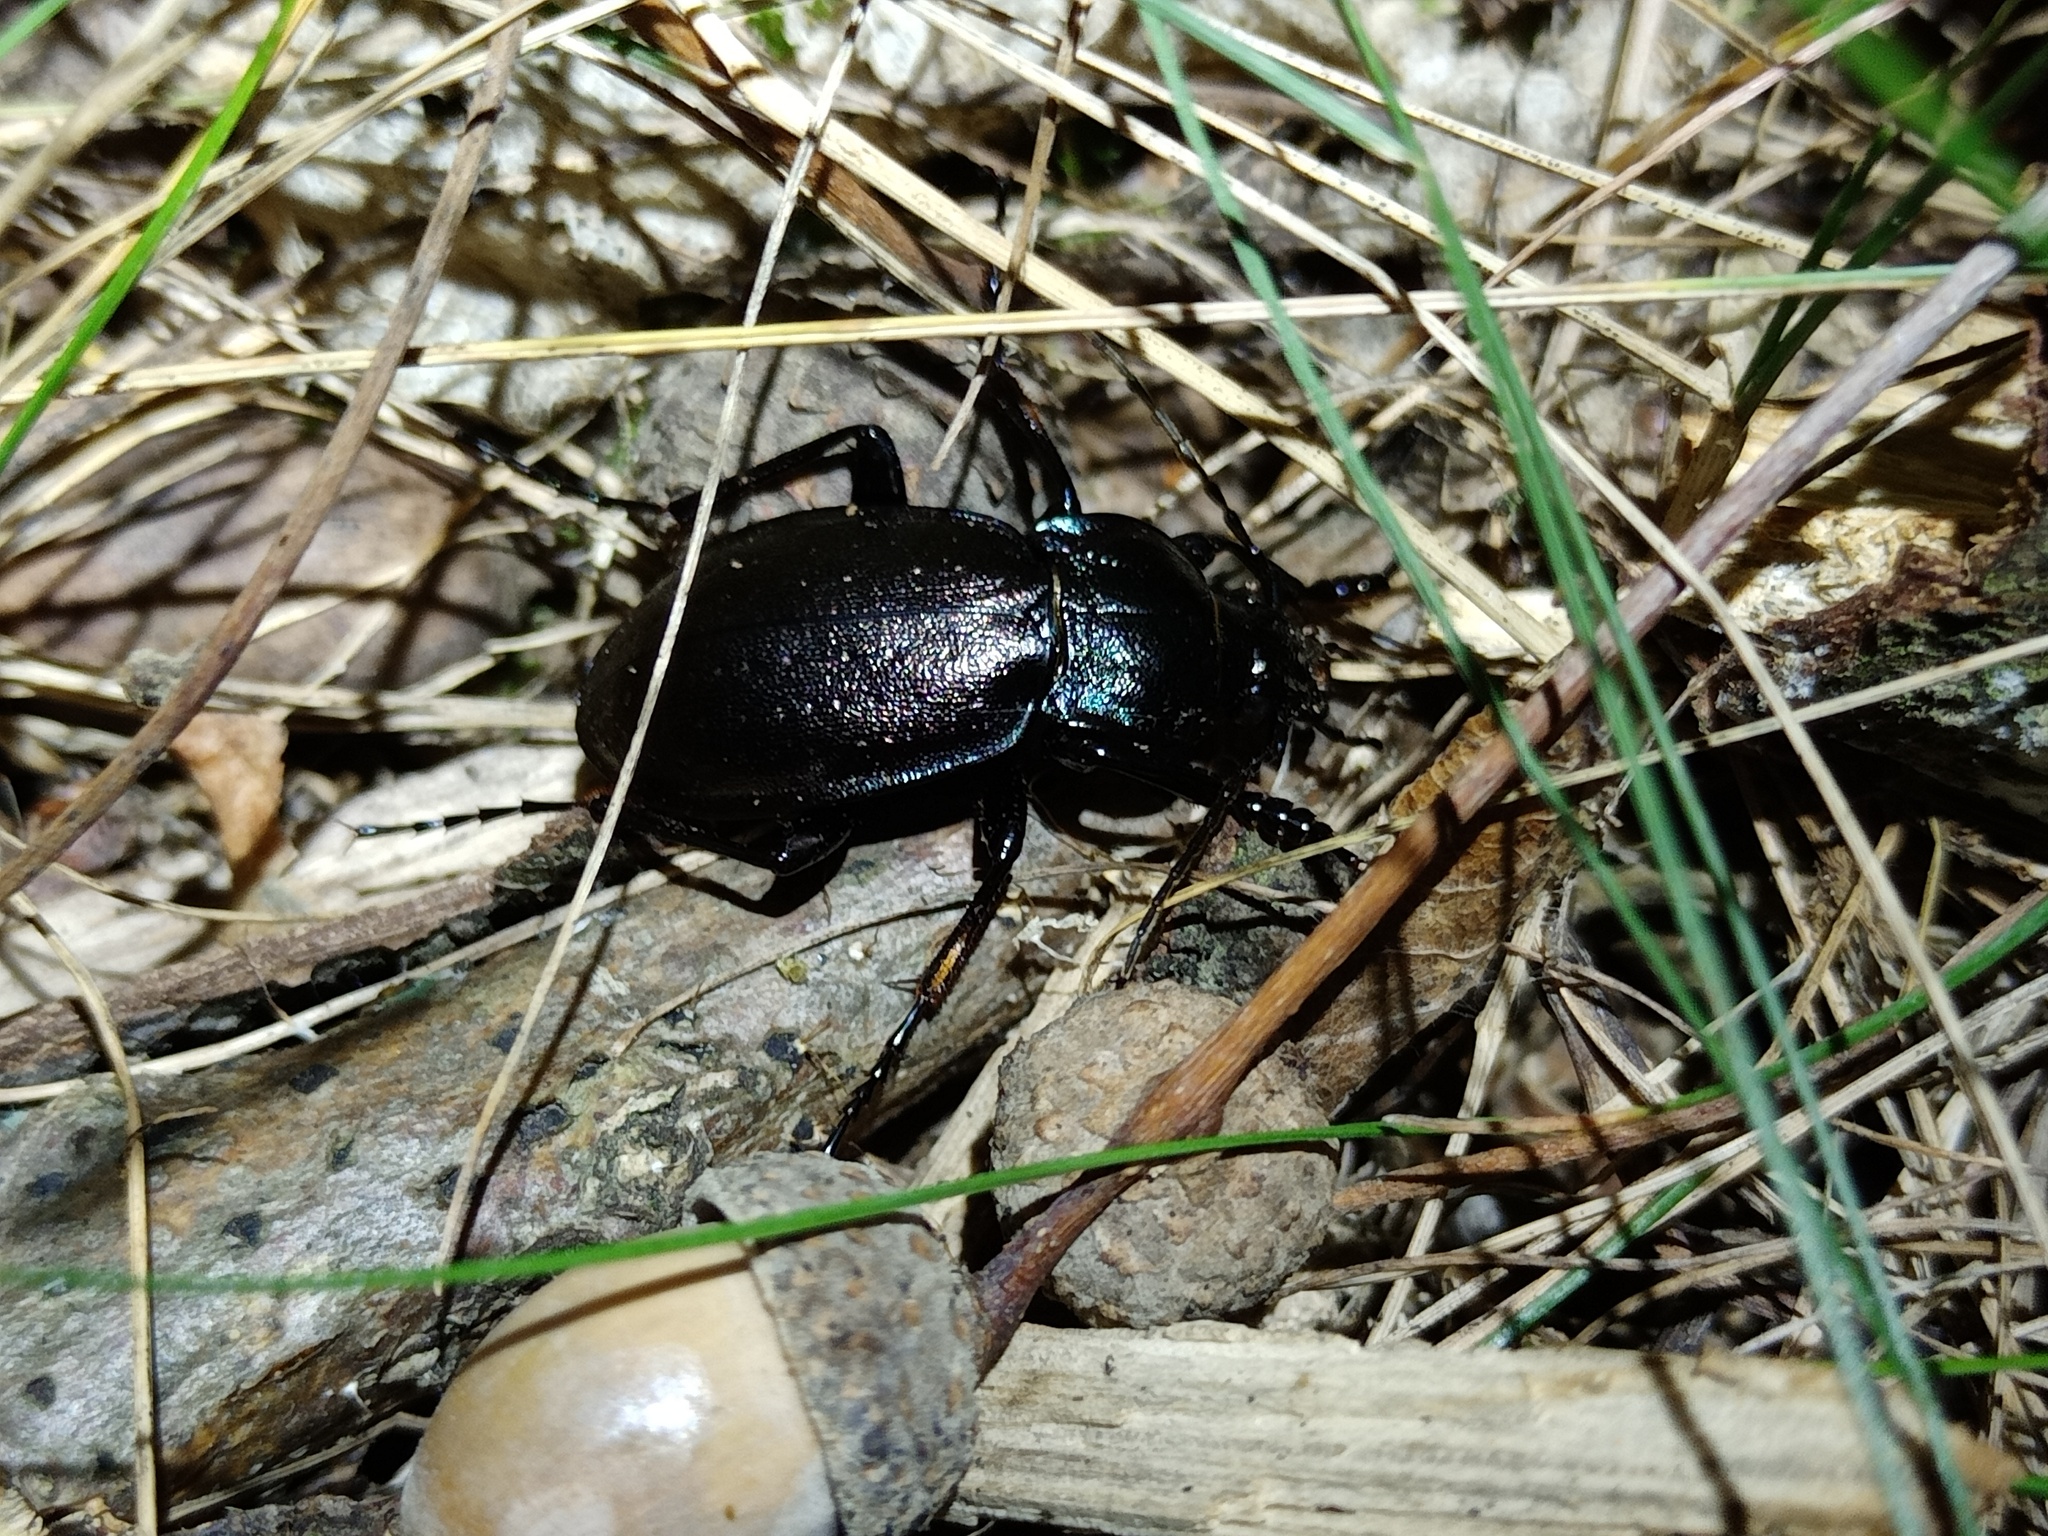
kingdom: Animalia
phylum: Arthropoda
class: Insecta
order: Coleoptera
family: Carabidae
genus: Carabus
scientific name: Carabus nemoralis
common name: European ground beetle
